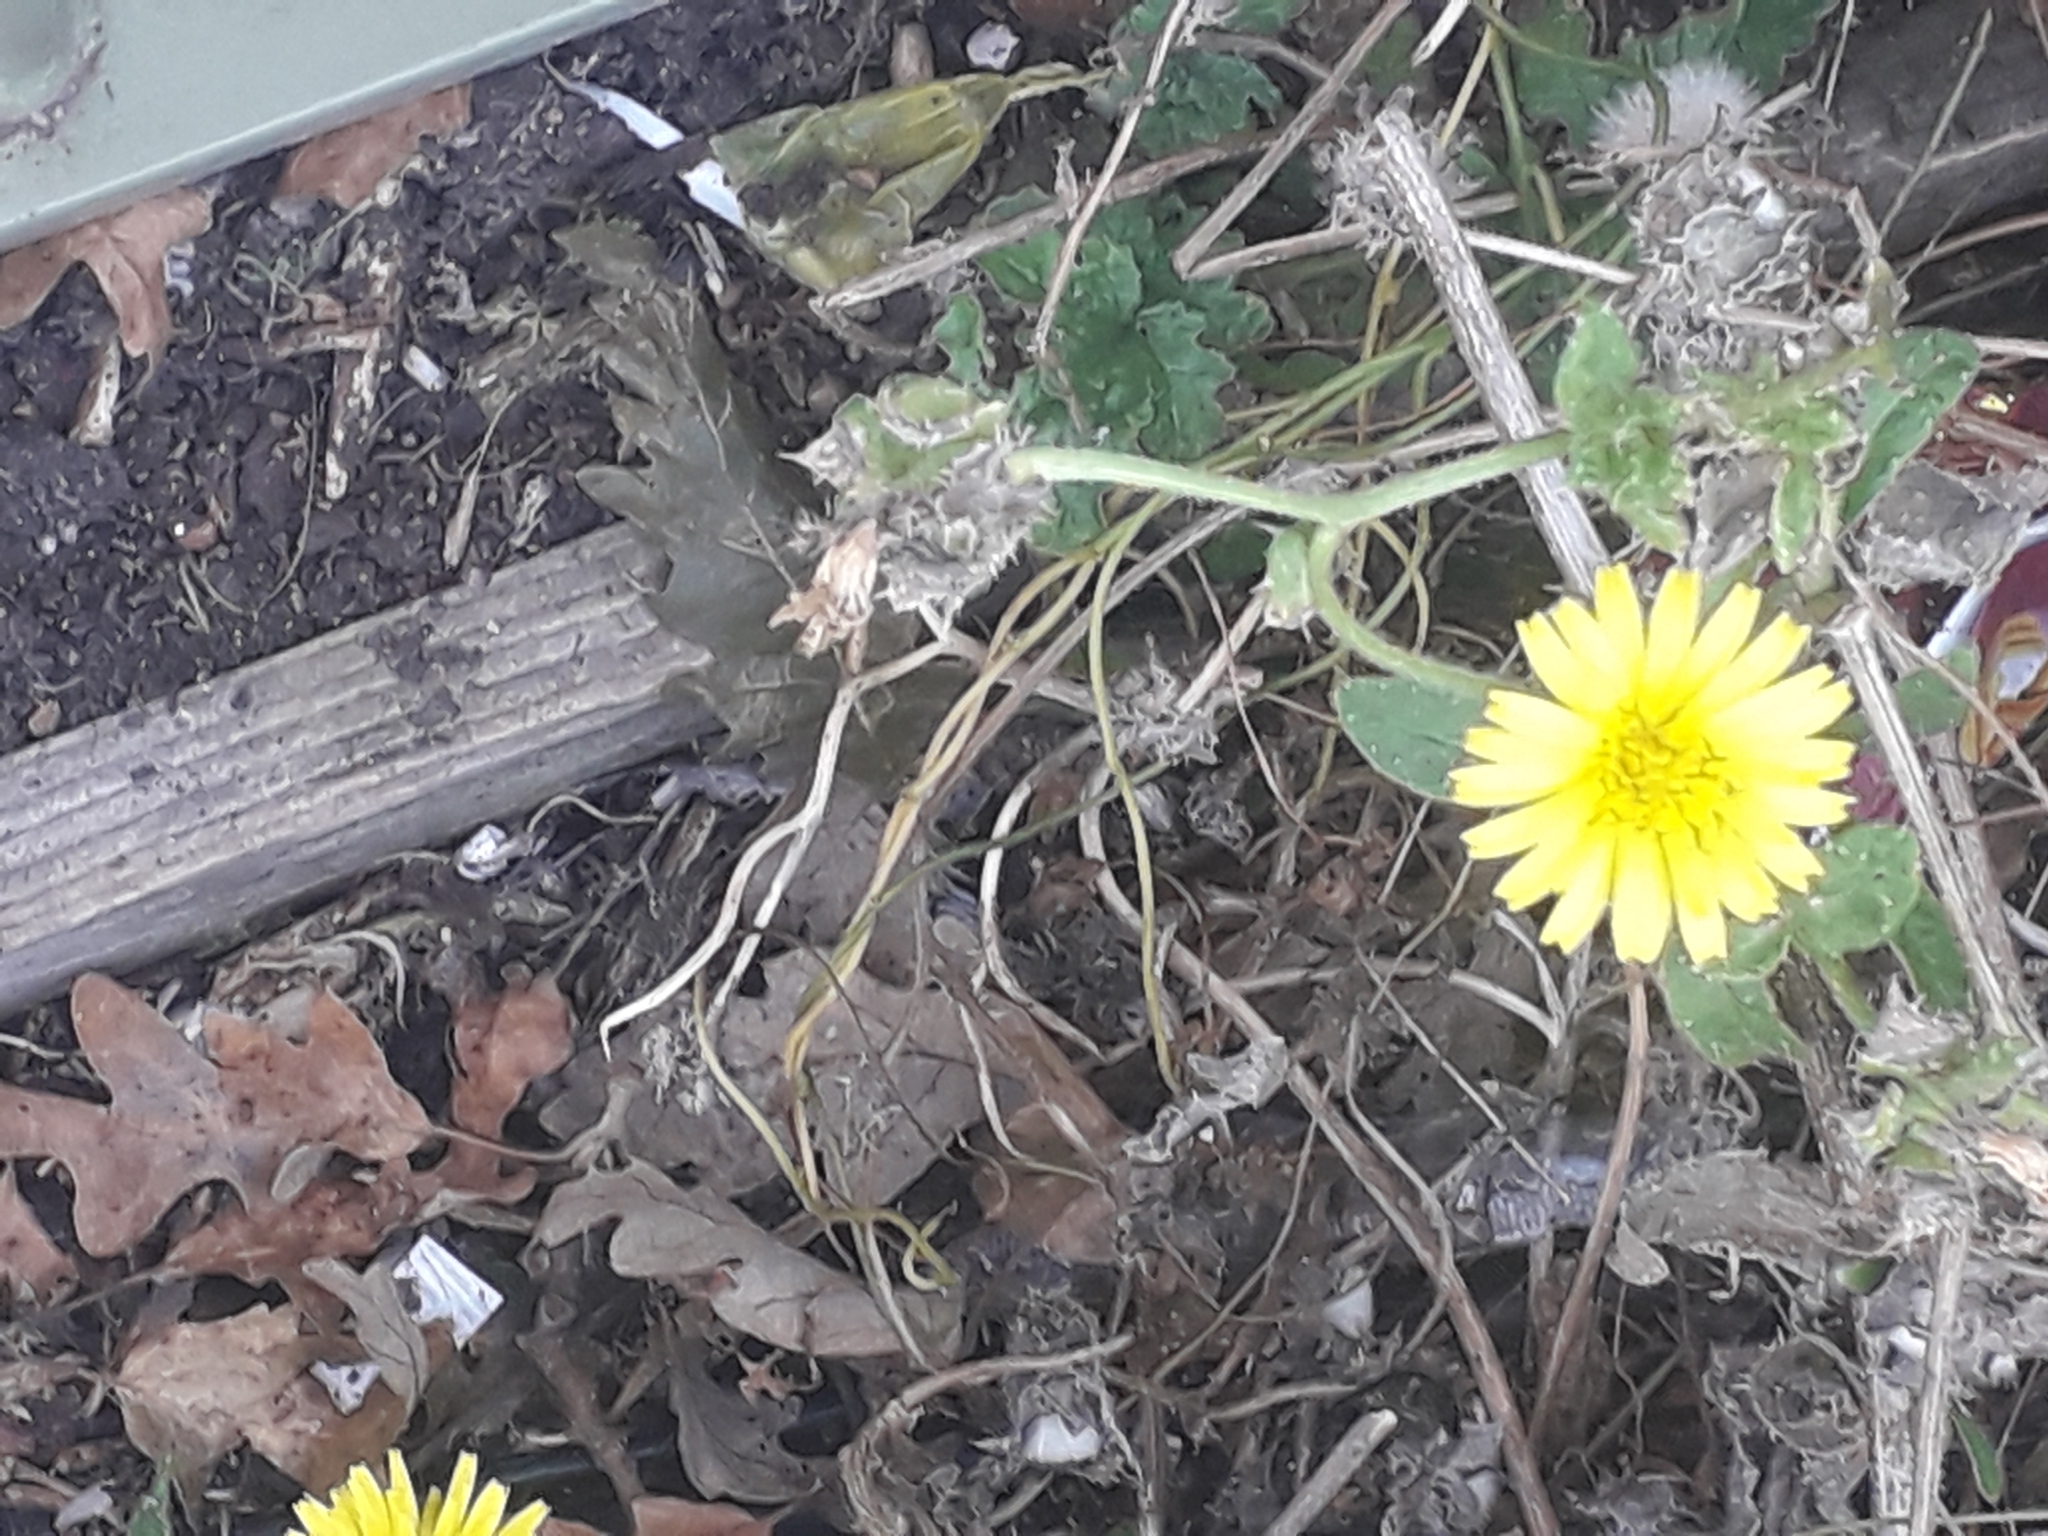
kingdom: Plantae
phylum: Tracheophyta
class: Magnoliopsida
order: Asterales
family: Asteraceae
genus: Helminthotheca
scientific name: Helminthotheca echioides
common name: Ox-tongue
